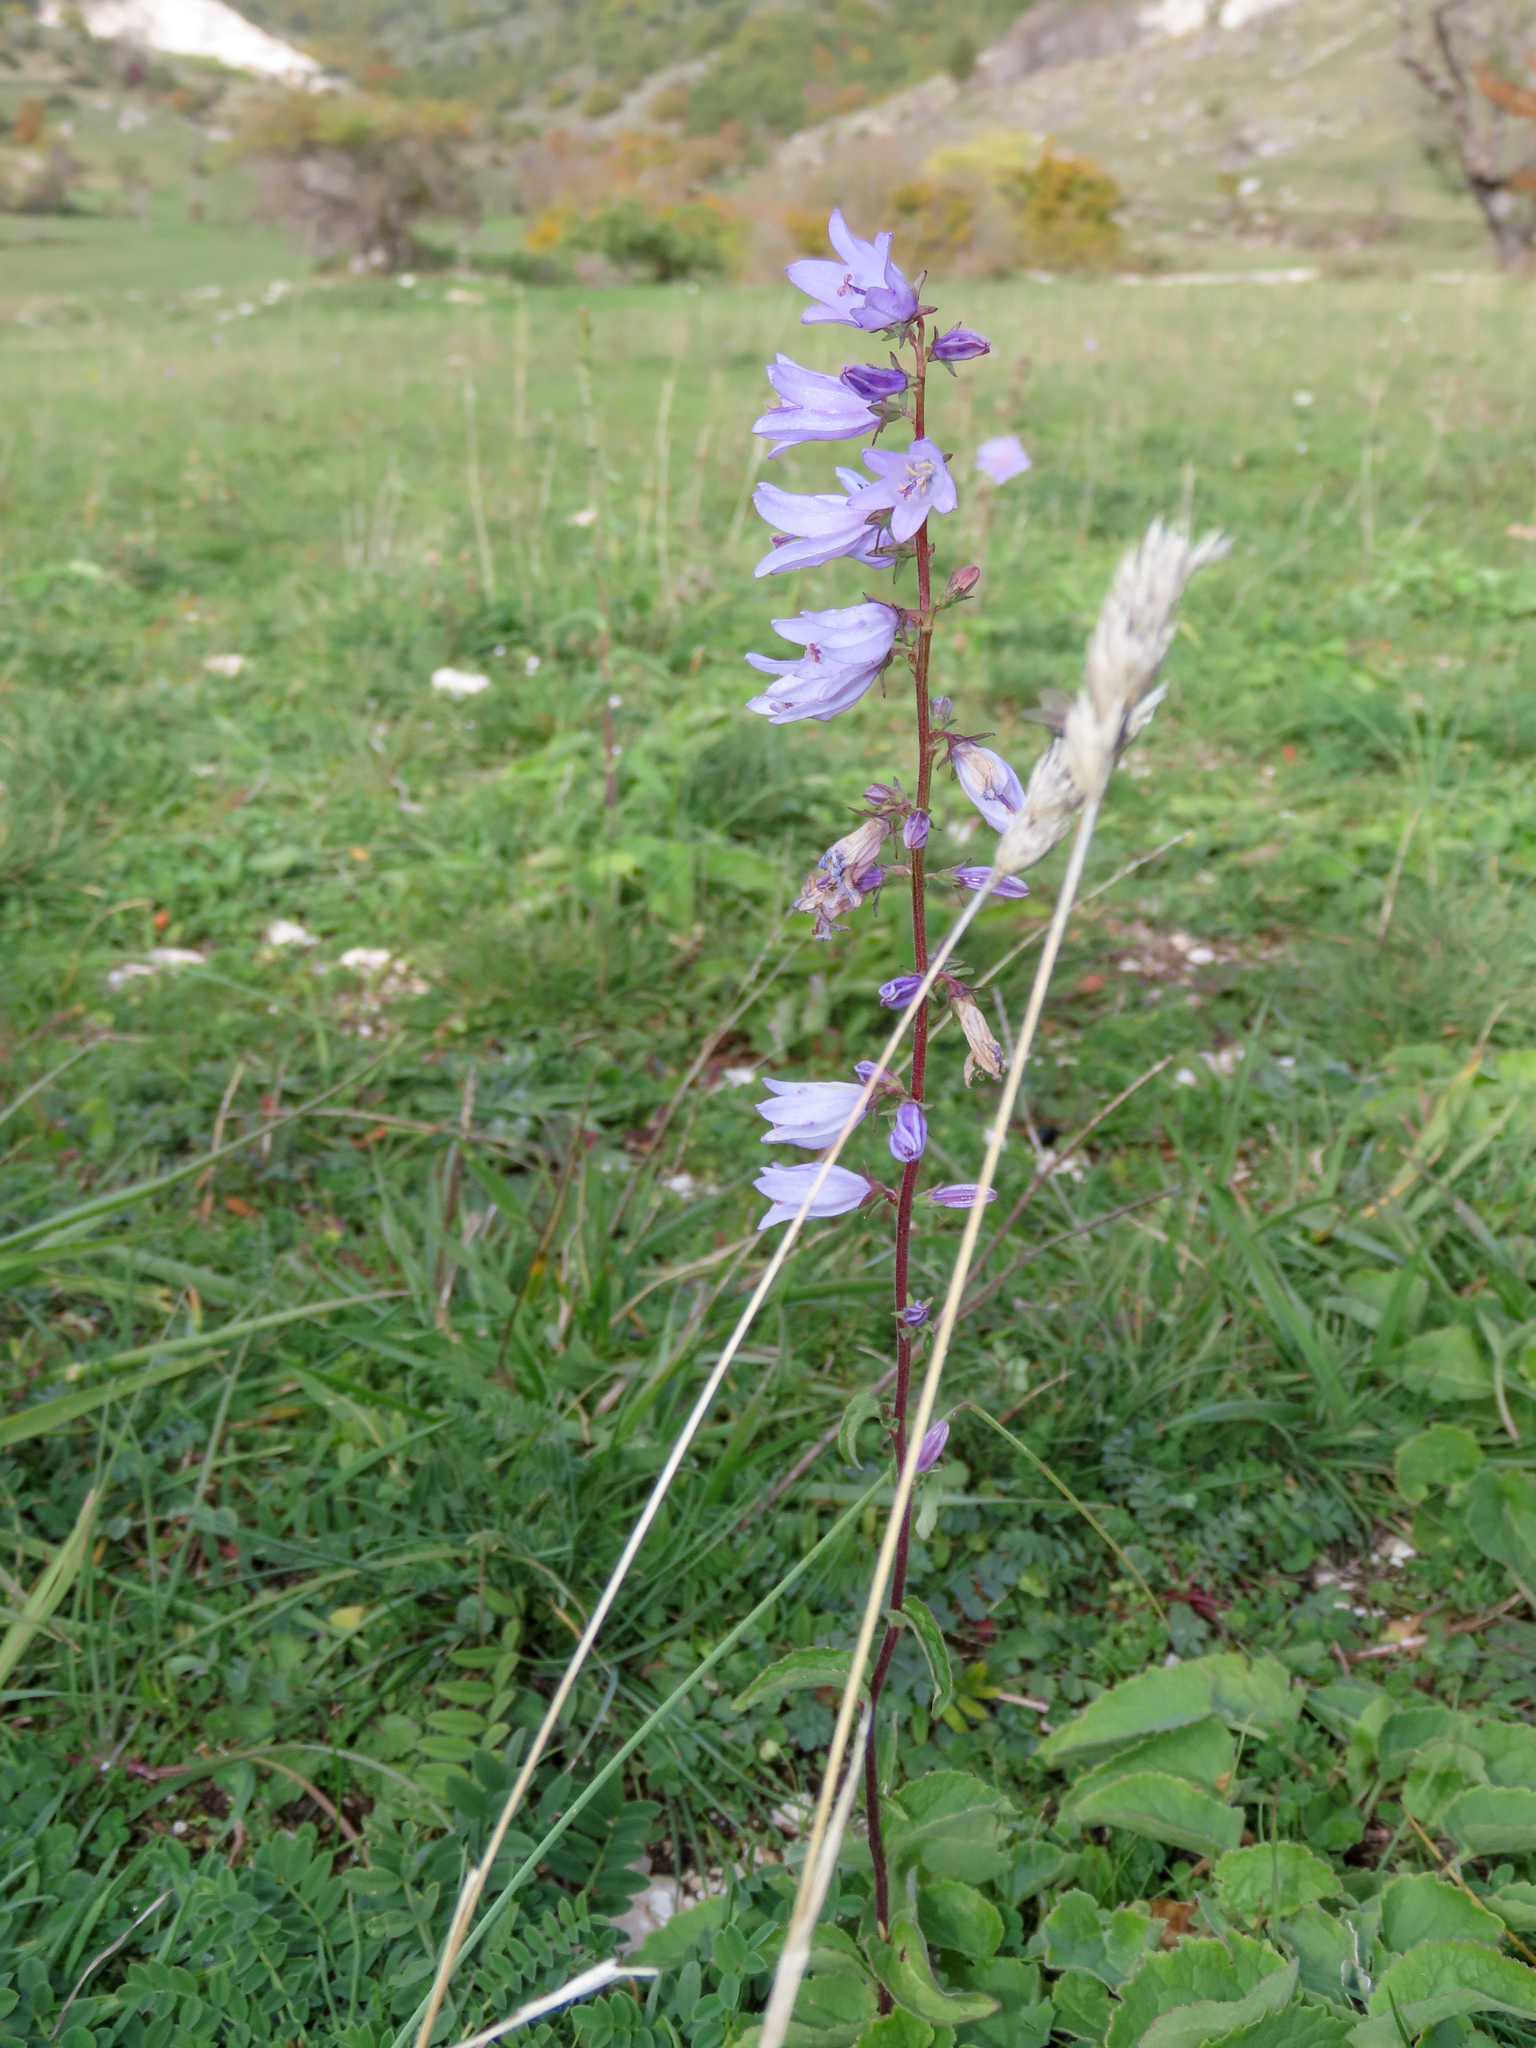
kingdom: Plantae
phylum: Tracheophyta
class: Magnoliopsida
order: Asterales
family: Campanulaceae
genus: Campanula
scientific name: Campanula bononiensis
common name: Pale bellflower
